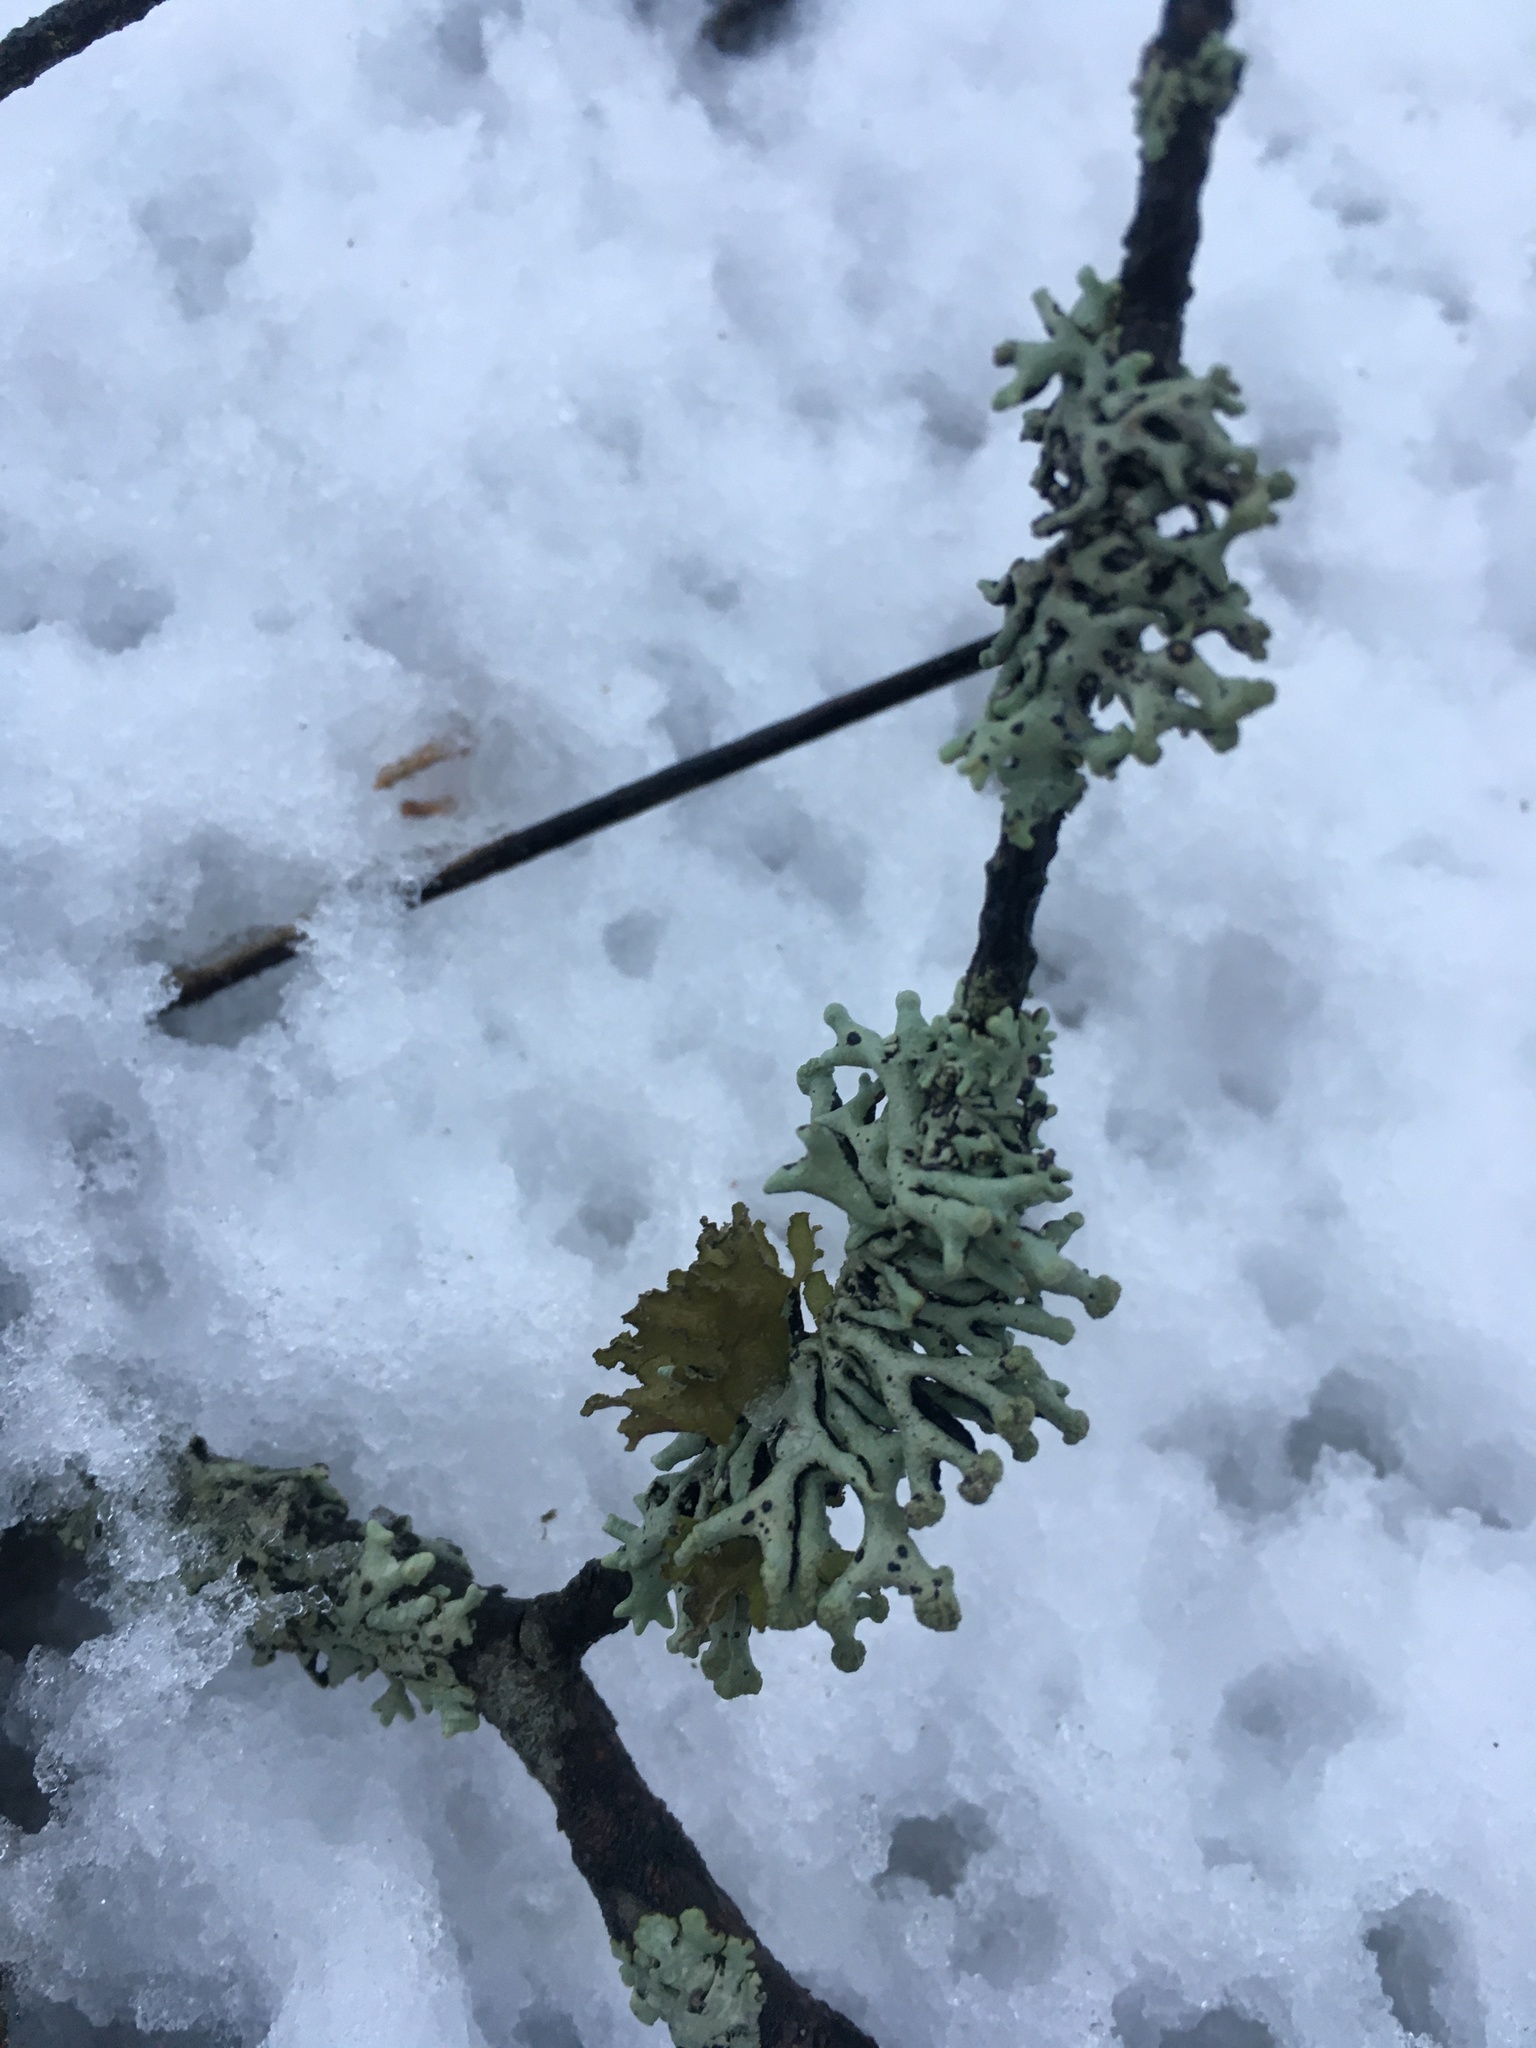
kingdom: Fungi
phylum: Ascomycota
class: Lecanoromycetes
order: Lecanorales
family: Parmeliaceae
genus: Hypogymnia
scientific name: Hypogymnia tubulosa
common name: Powder-headed tube lichen
